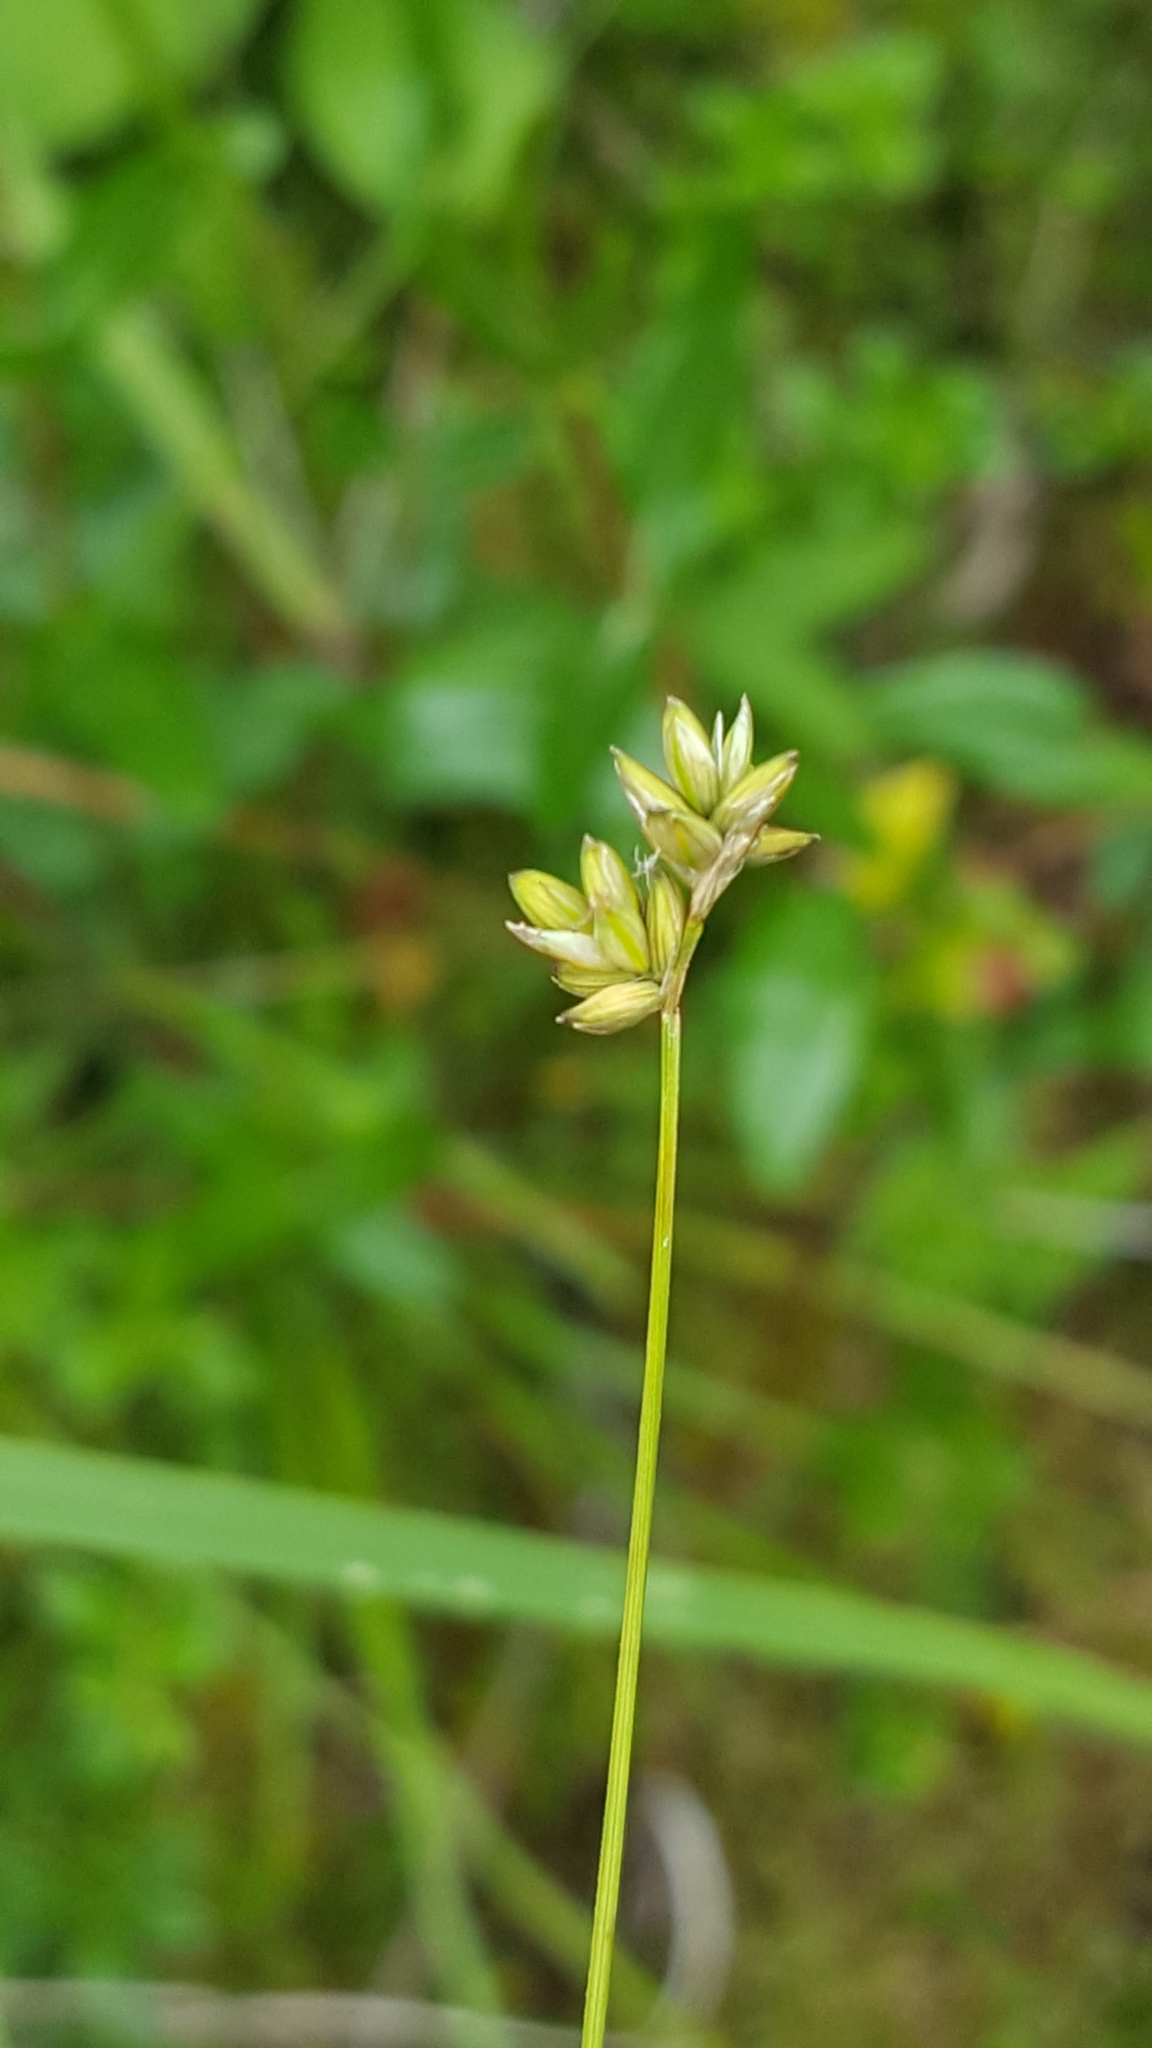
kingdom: Plantae
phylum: Tracheophyta
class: Liliopsida
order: Poales
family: Cyperaceae
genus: Carex
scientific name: Carex tenuiflora
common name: Sparse-flowered sedge
